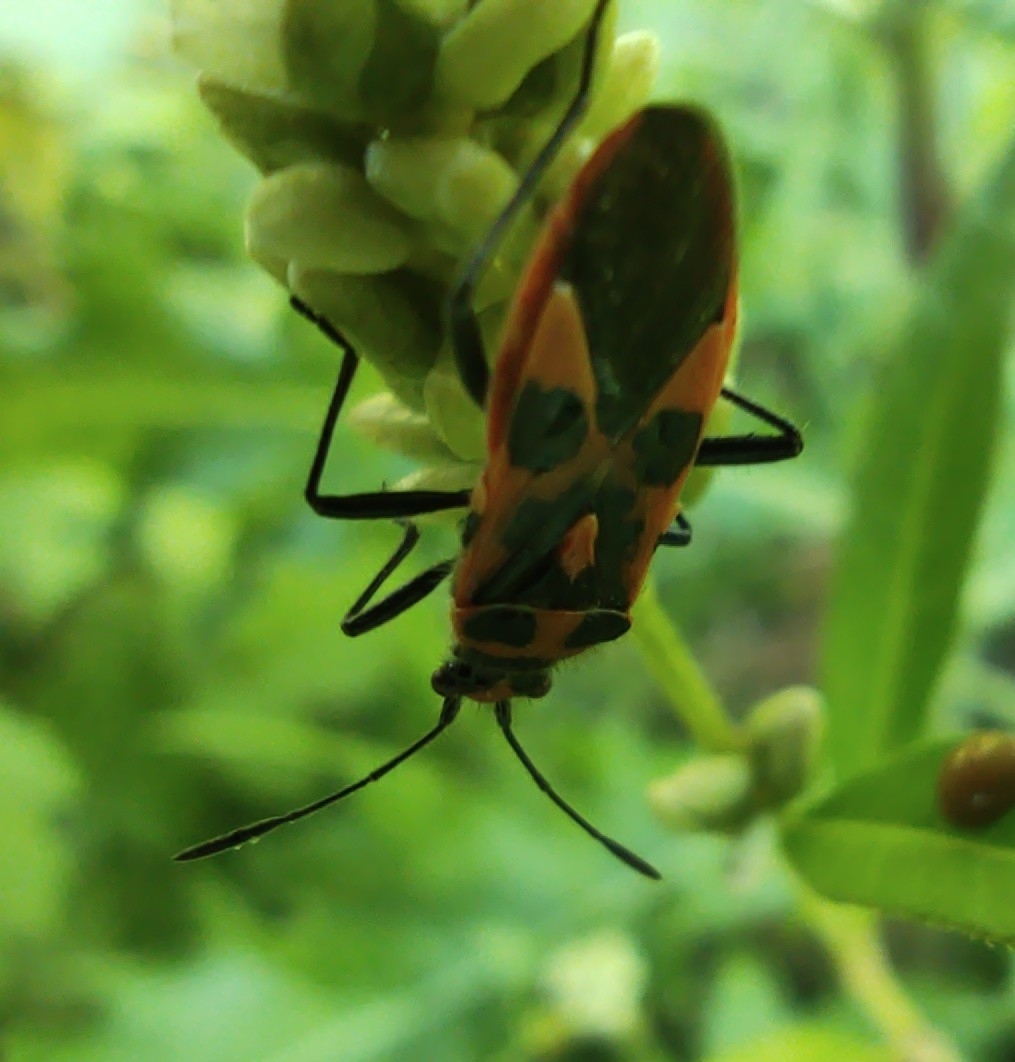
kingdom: Animalia
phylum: Arthropoda
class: Insecta
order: Hemiptera
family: Rhopalidae
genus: Corizus
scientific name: Corizus hyoscyami
